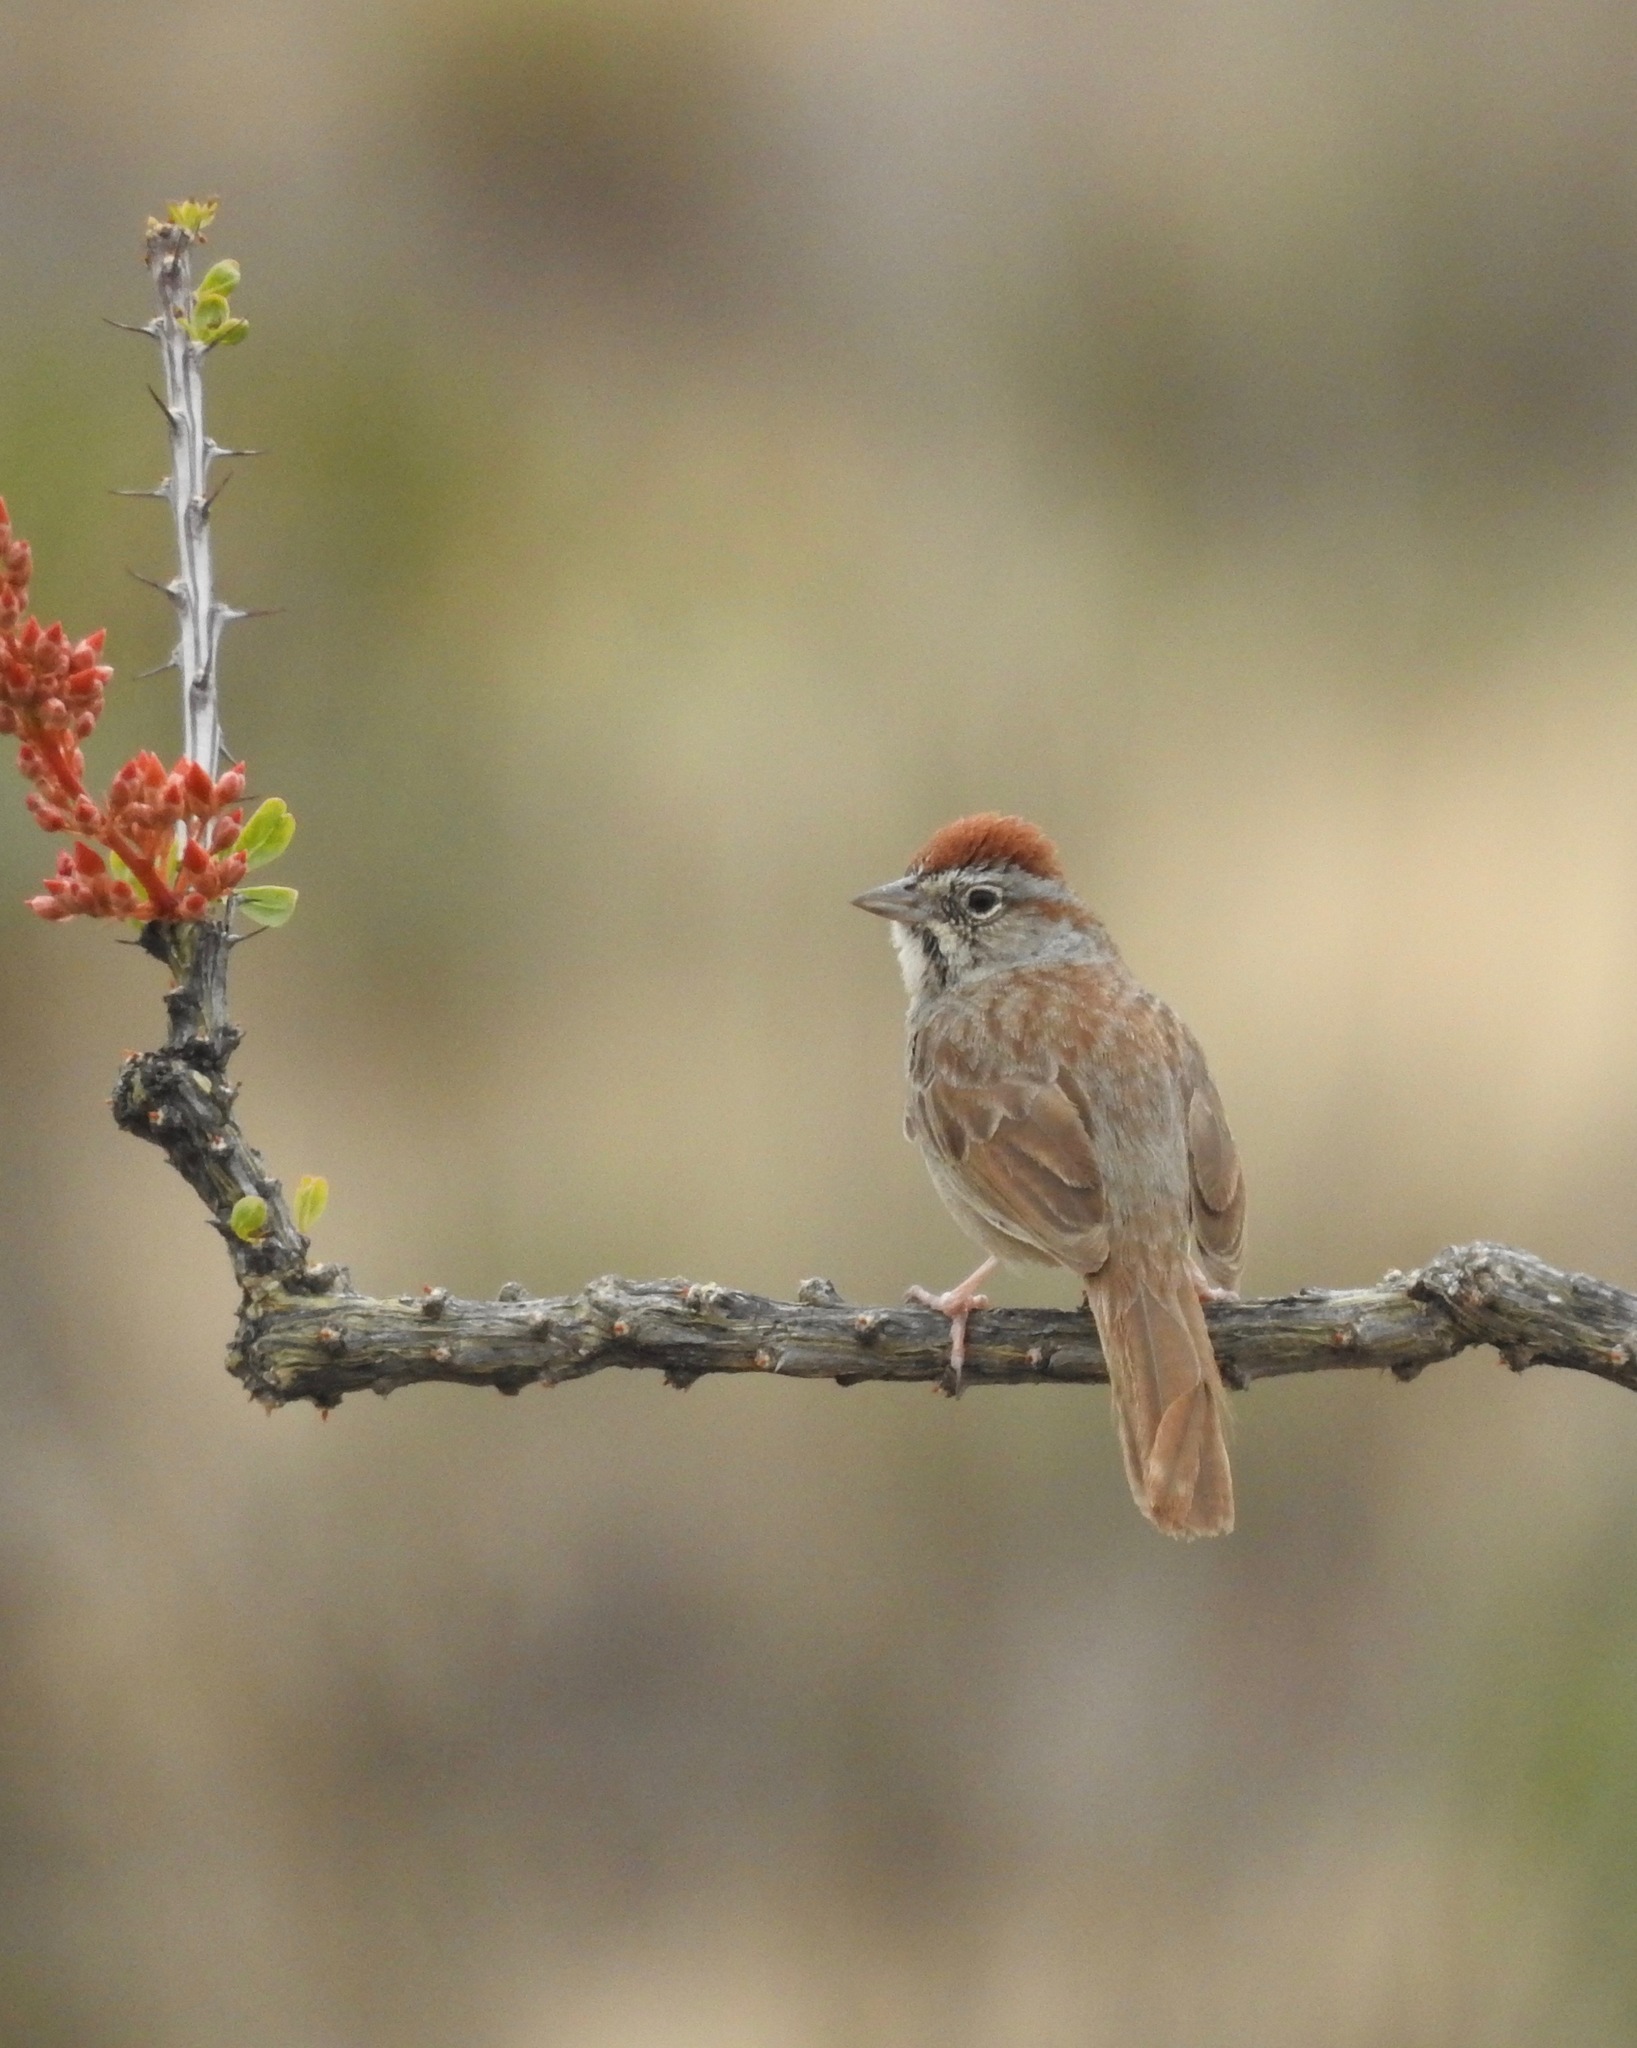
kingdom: Animalia
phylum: Chordata
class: Aves
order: Passeriformes
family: Passerellidae
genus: Aimophila
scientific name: Aimophila ruficeps
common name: Rufous-crowned sparrow
